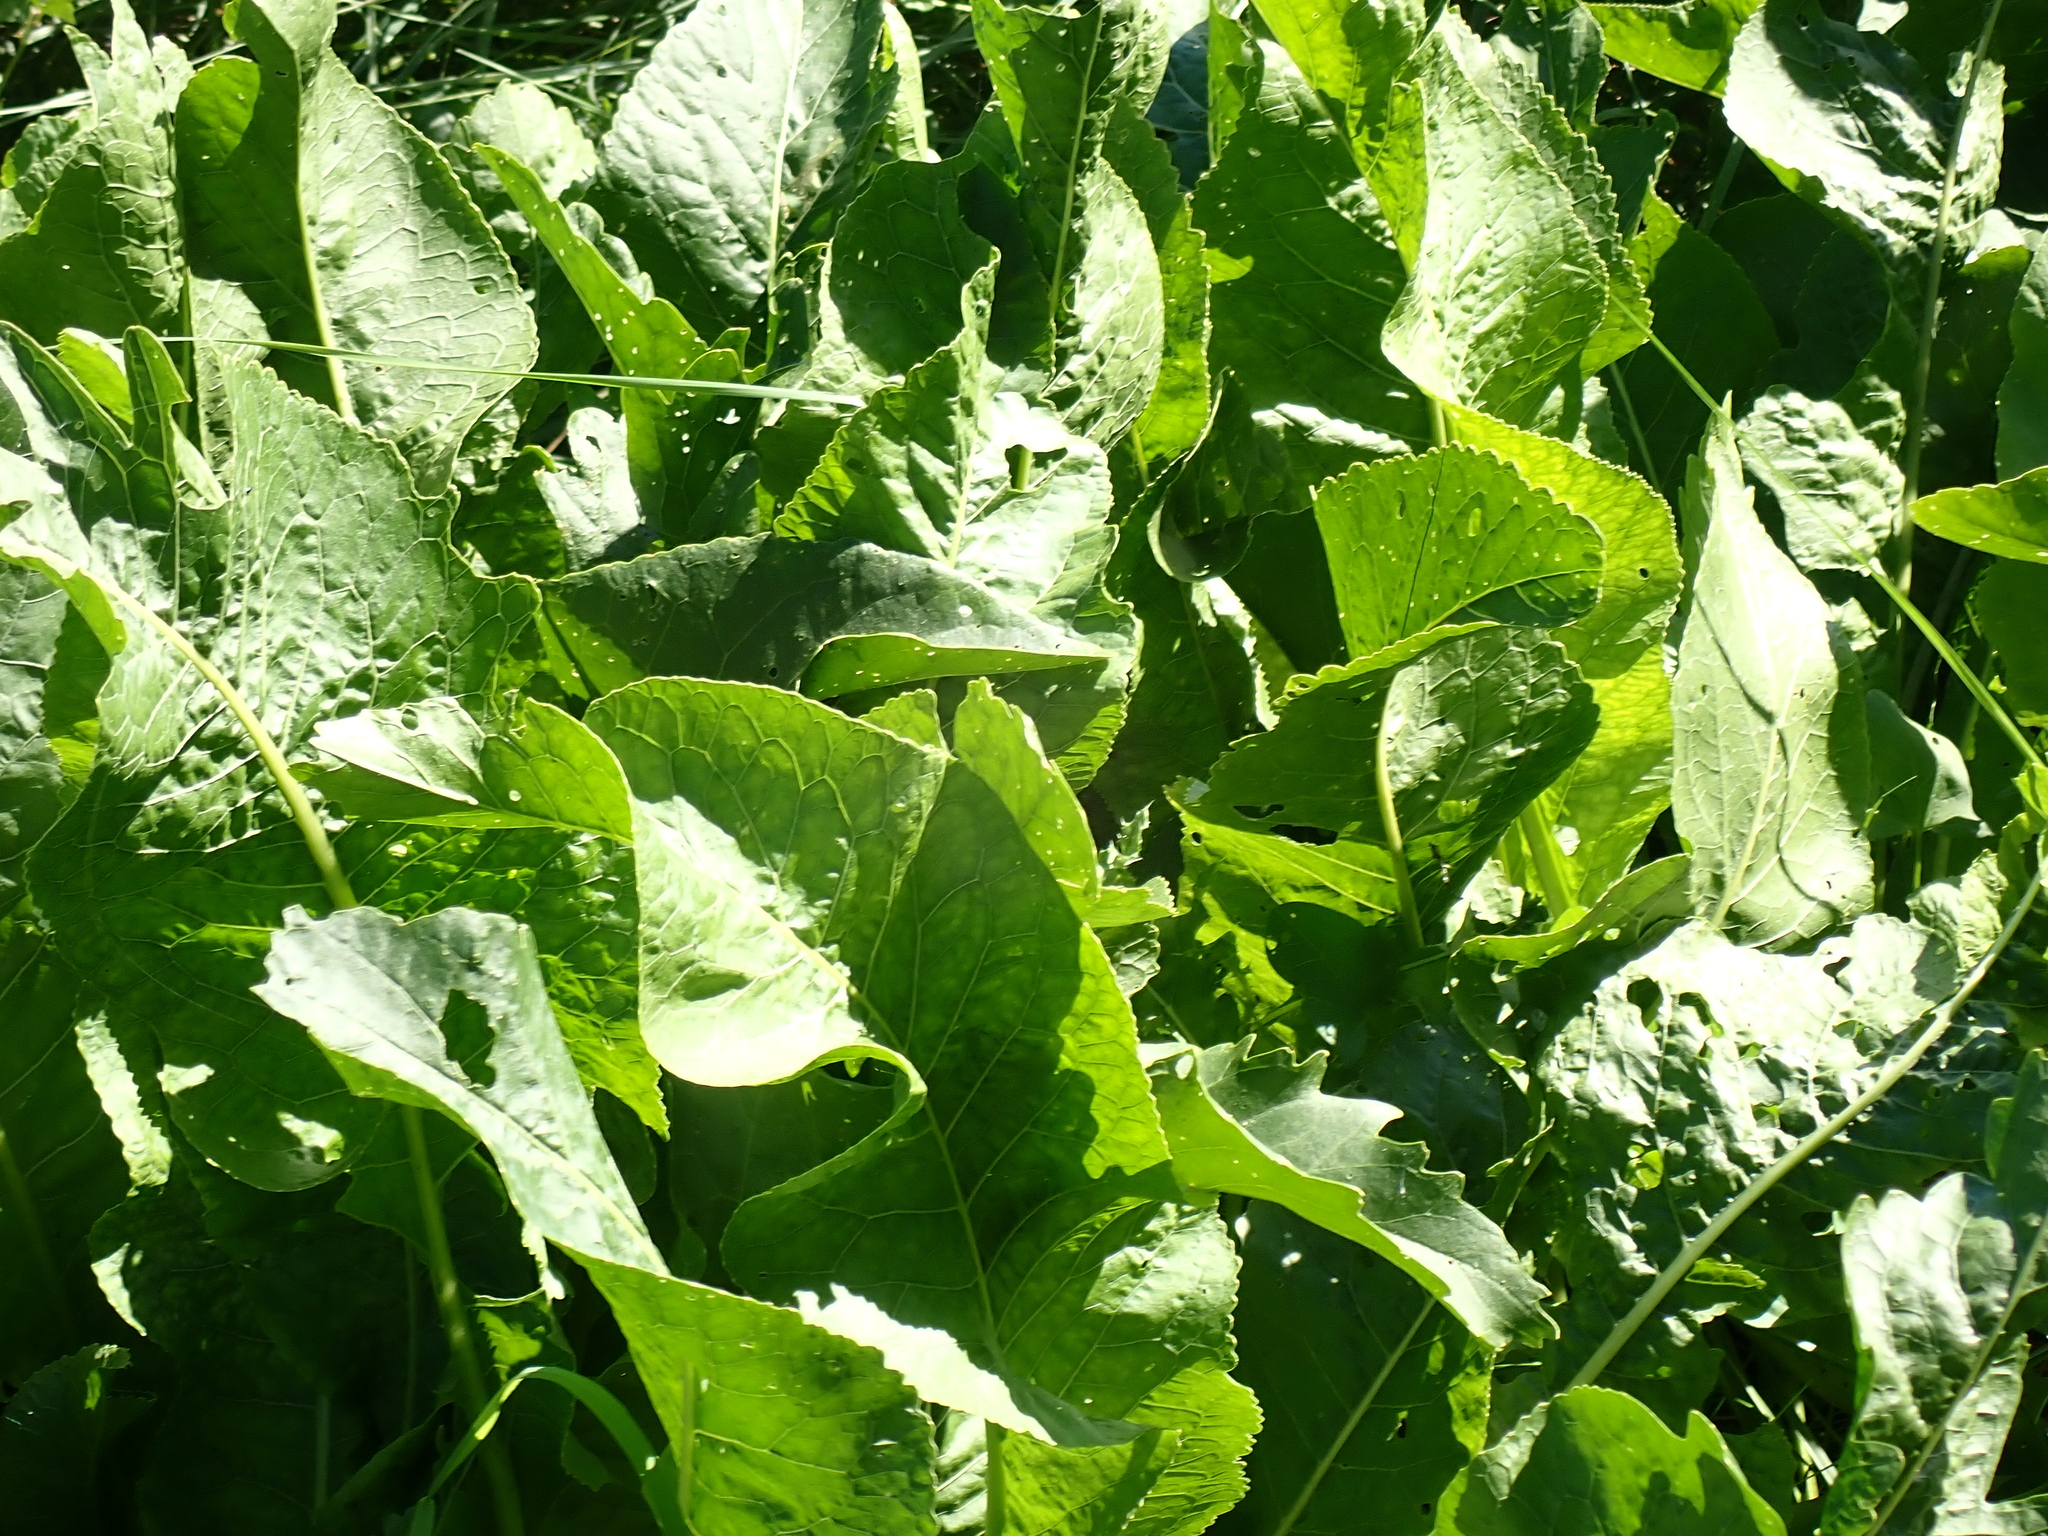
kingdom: Plantae
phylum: Tracheophyta
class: Magnoliopsida
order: Brassicales
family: Brassicaceae
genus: Armoracia
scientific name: Armoracia rusticana
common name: Horseradish
